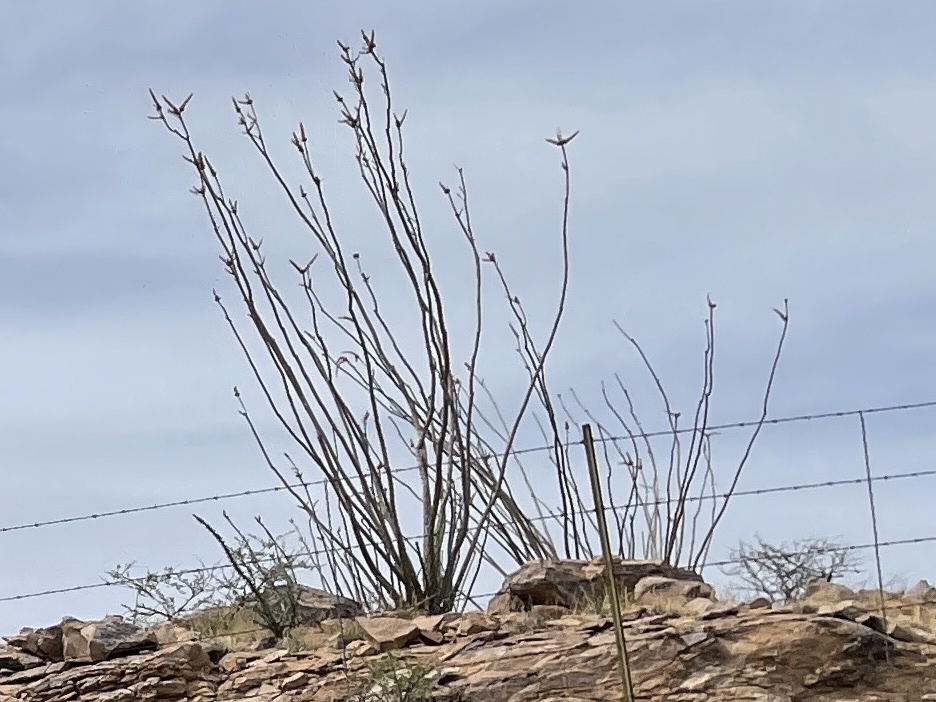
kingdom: Plantae
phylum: Tracheophyta
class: Magnoliopsida
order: Ericales
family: Fouquieriaceae
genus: Fouquieria
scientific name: Fouquieria splendens
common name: Vine-cactus
